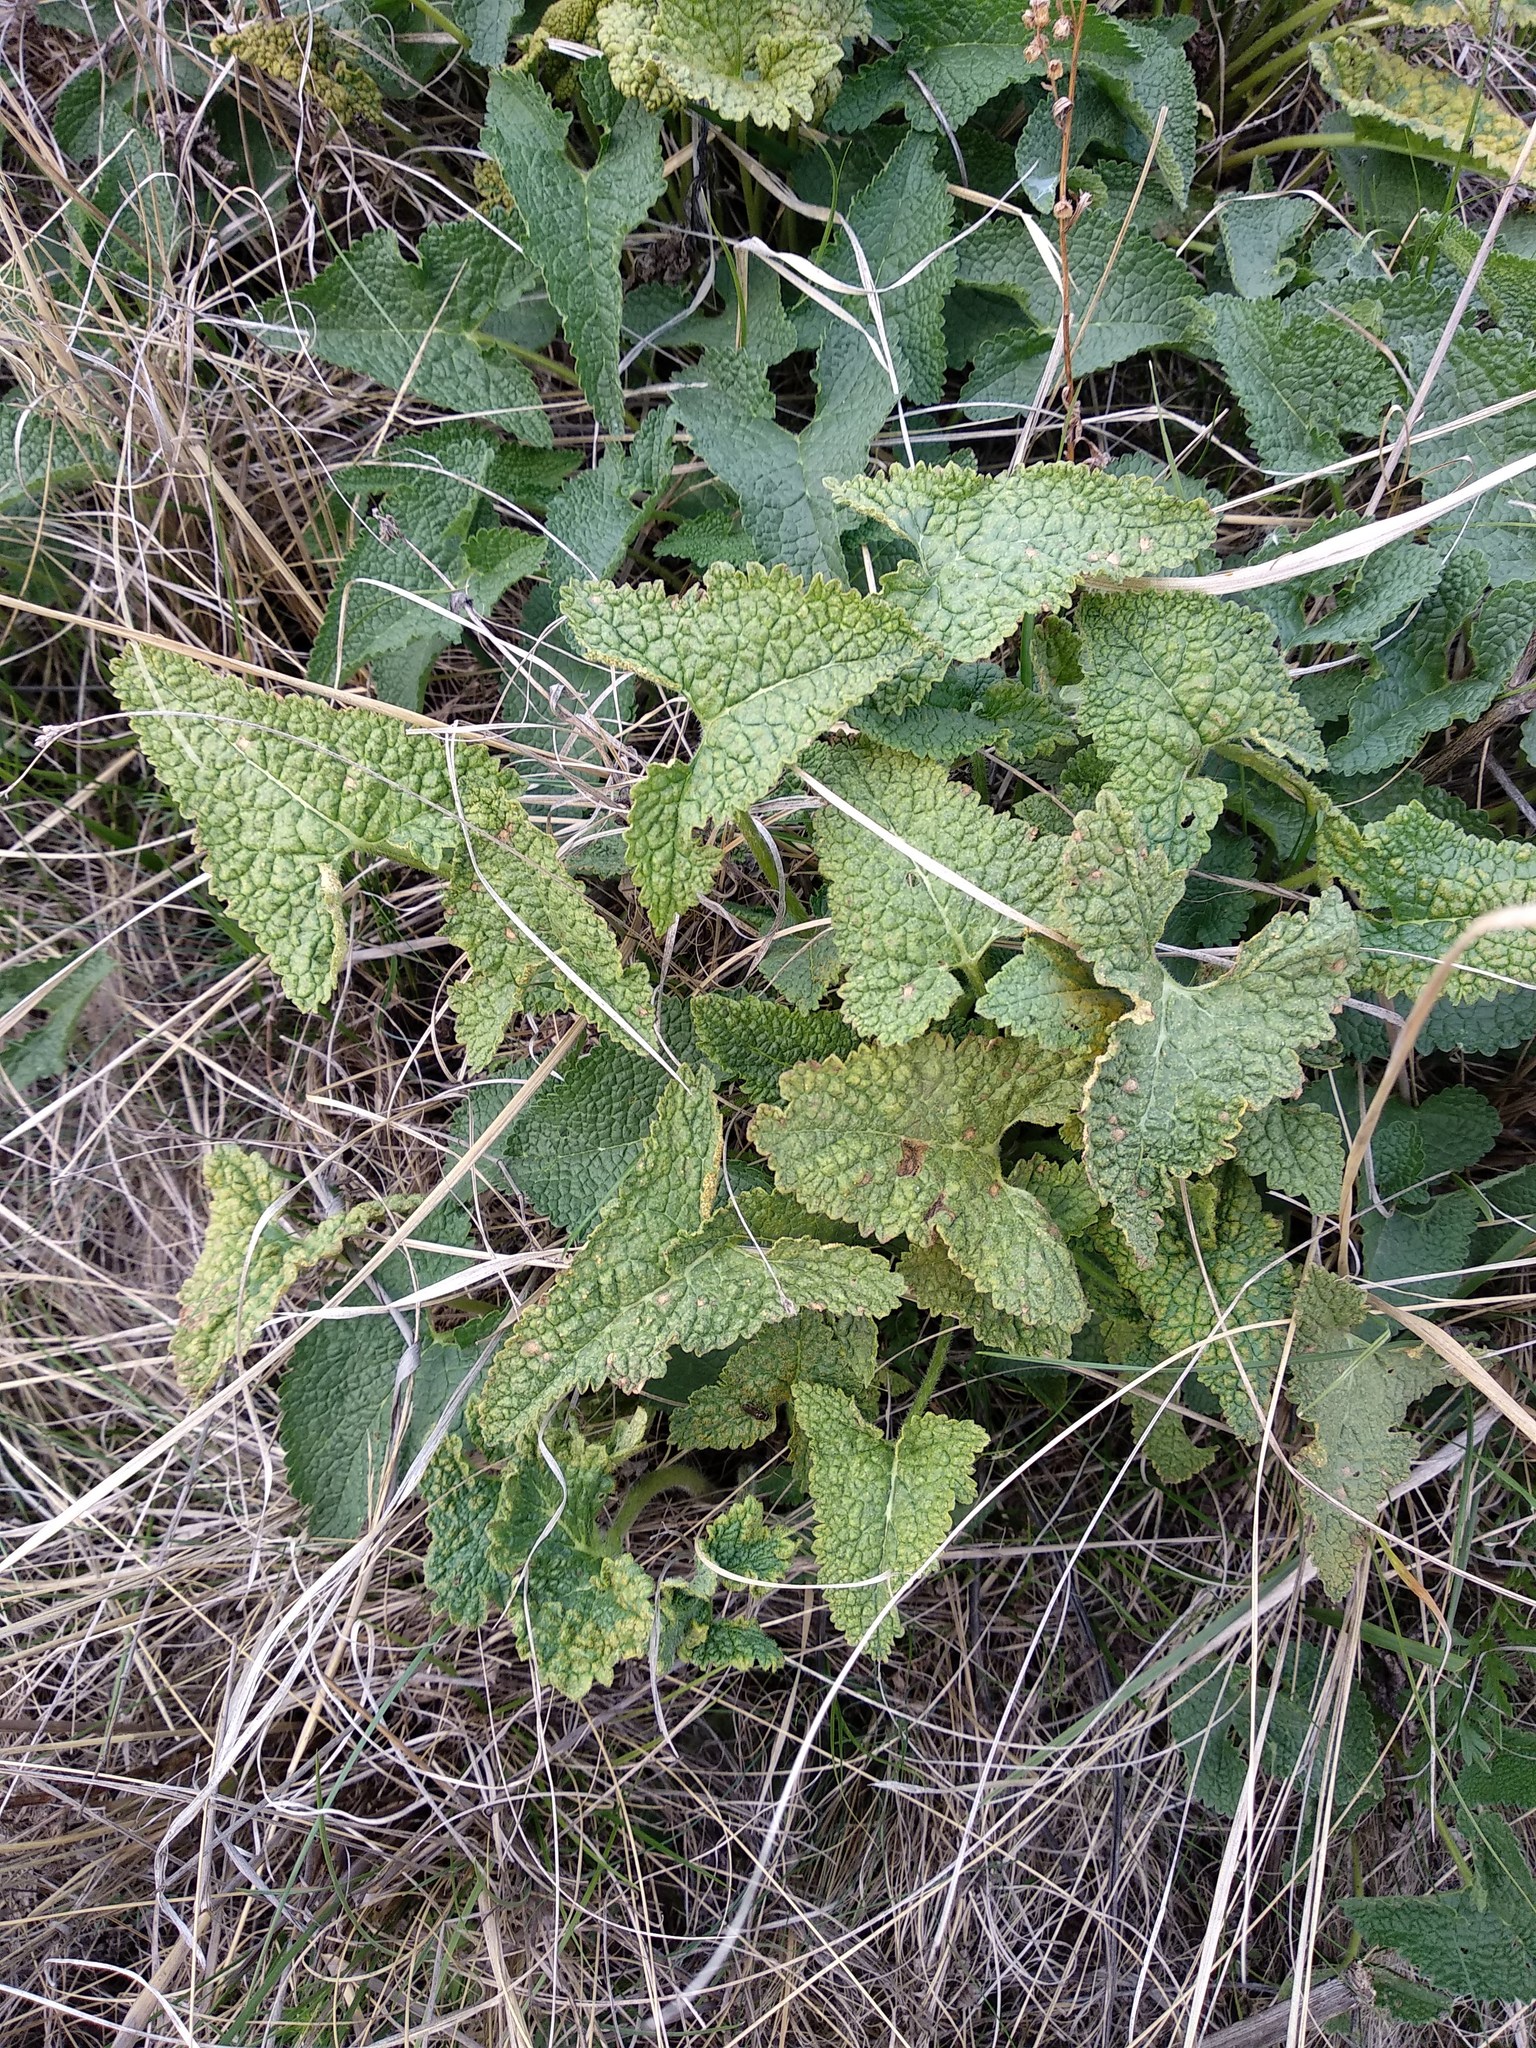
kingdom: Plantae
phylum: Tracheophyta
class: Magnoliopsida
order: Lamiales
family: Lamiaceae
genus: Phlomoides
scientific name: Phlomoides tuberosa
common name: Tuberous jerusalem sage
